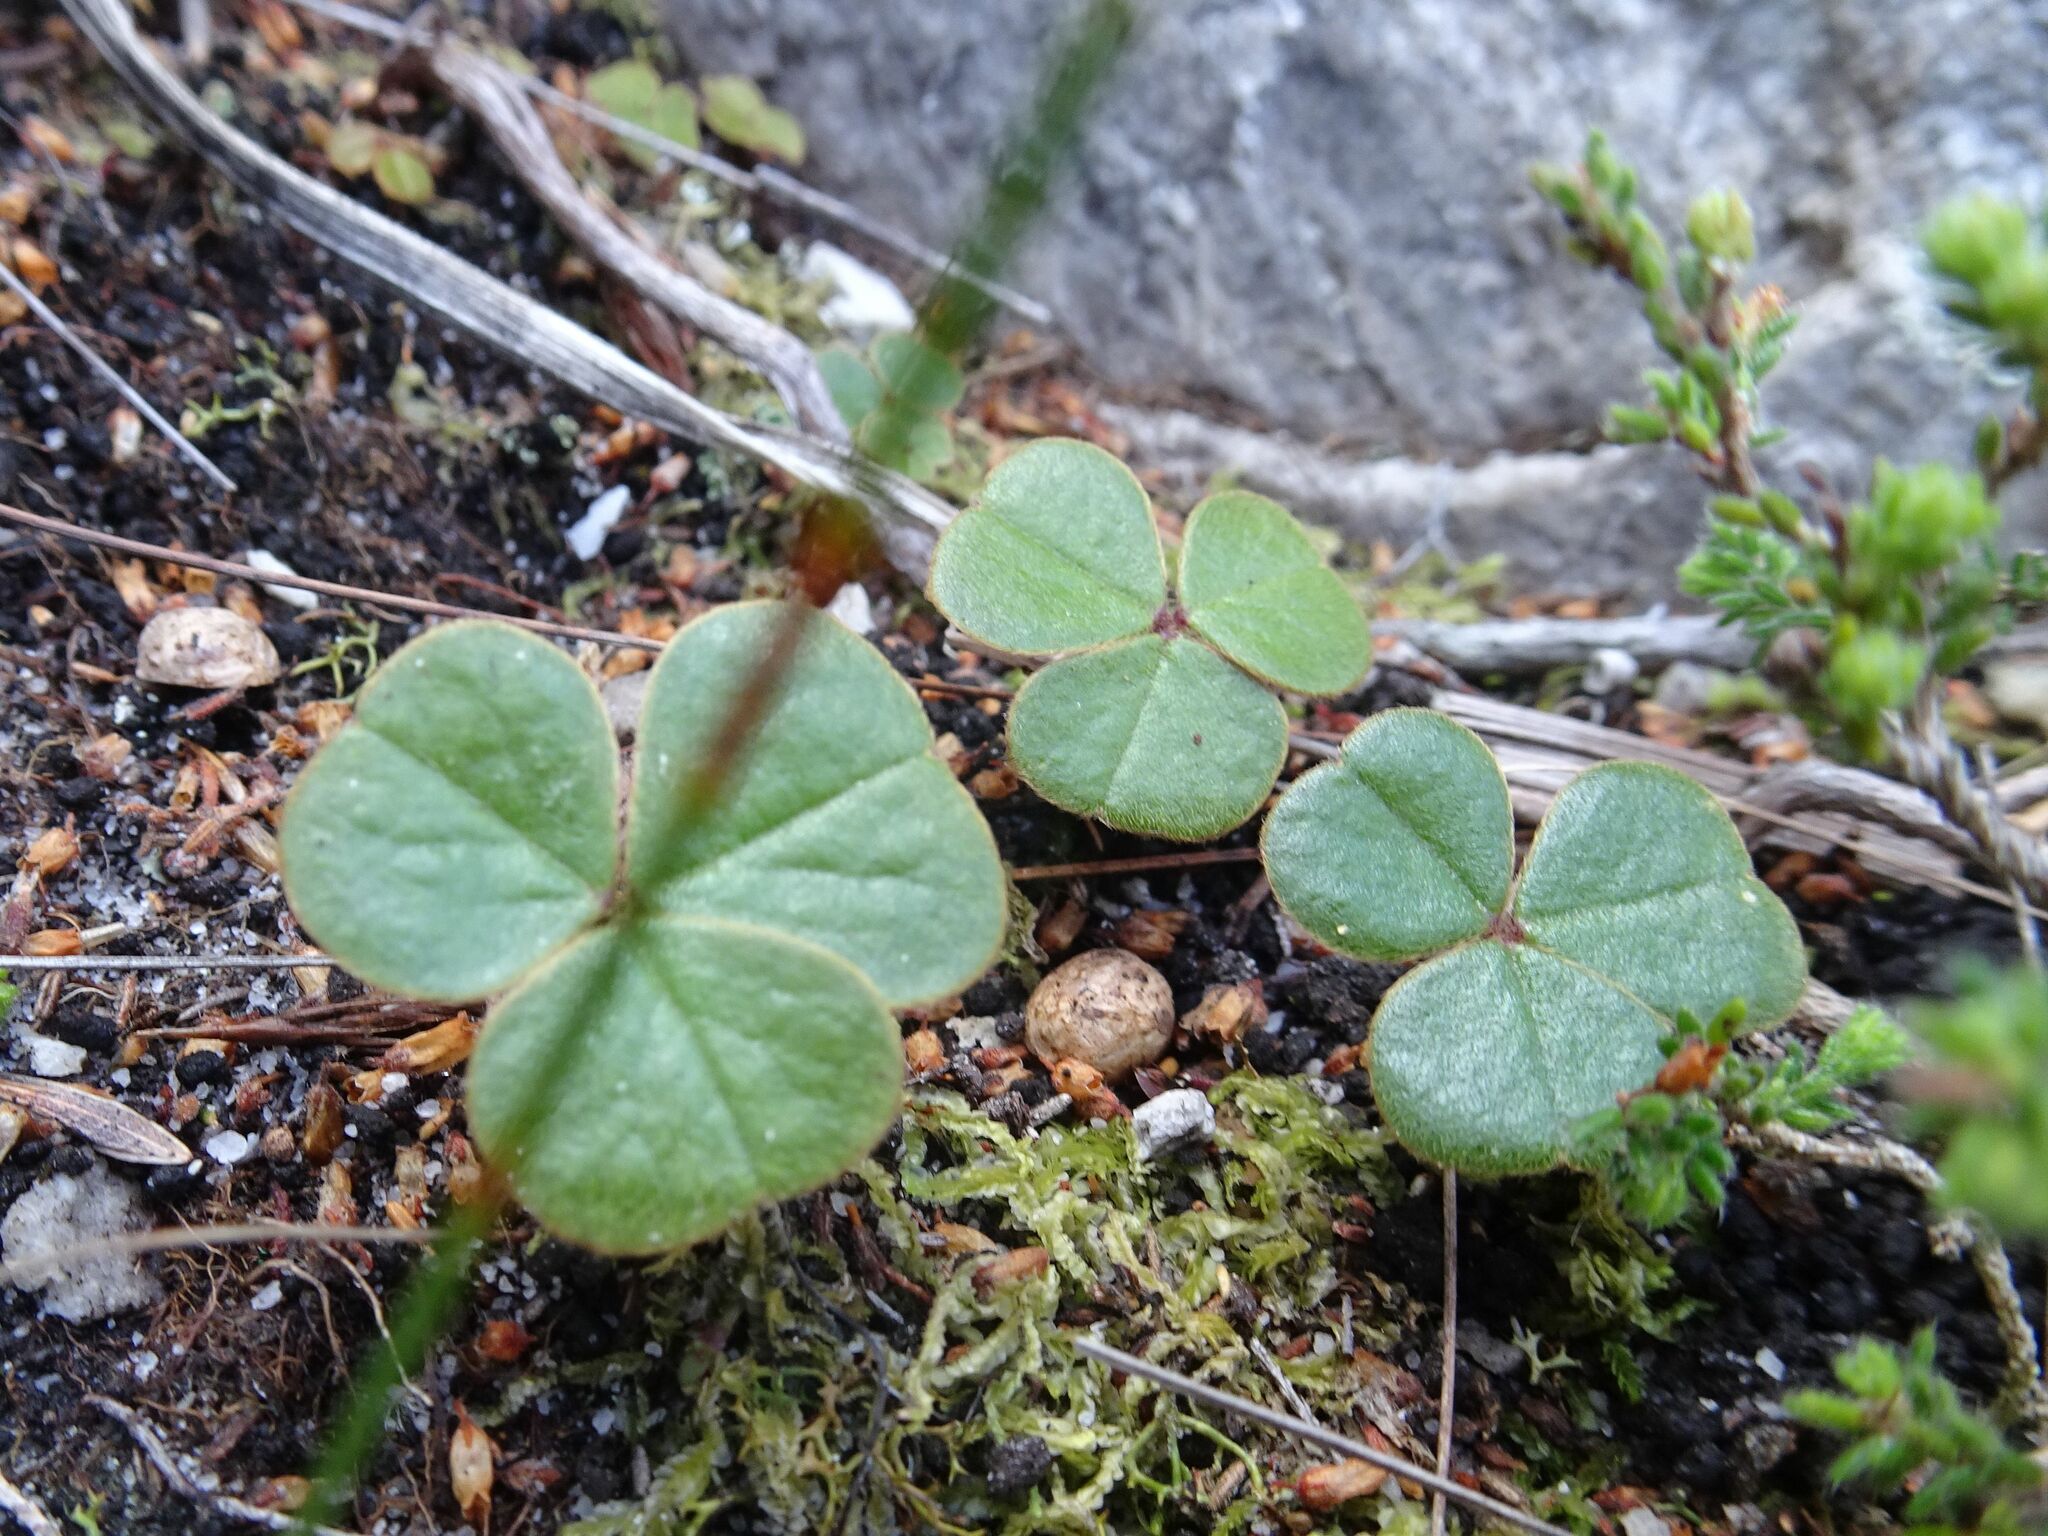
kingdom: Plantae
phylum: Tracheophyta
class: Magnoliopsida
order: Oxalidales
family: Oxalidaceae
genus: Oxalis
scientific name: Oxalis truncatula
